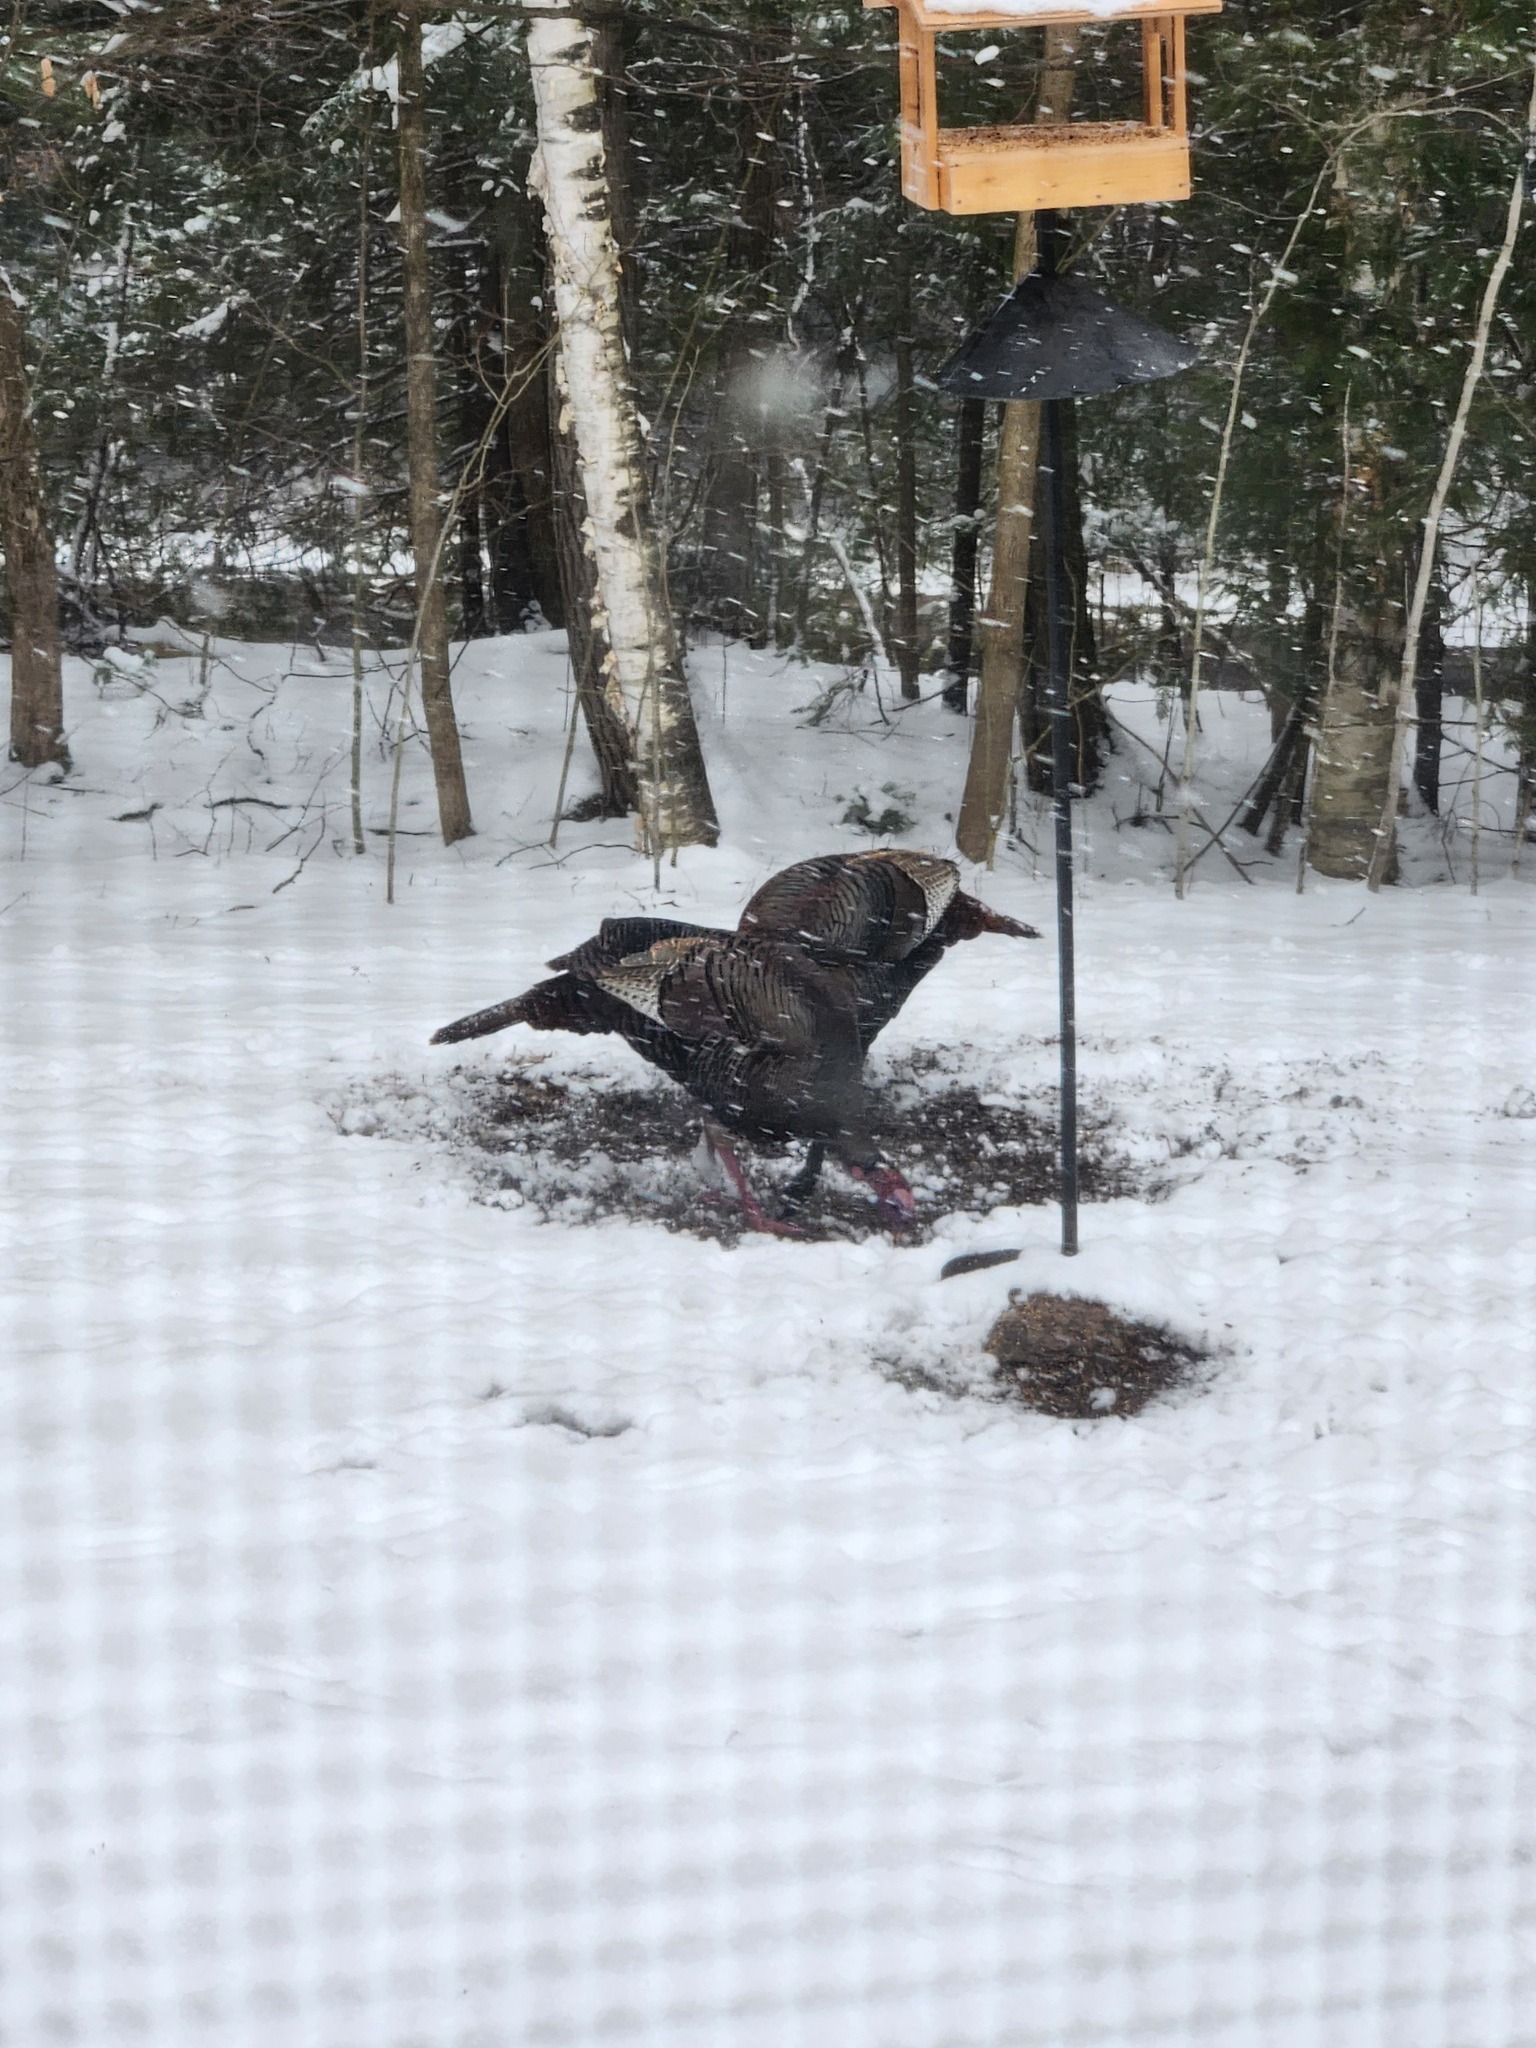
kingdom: Animalia
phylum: Chordata
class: Aves
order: Galliformes
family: Phasianidae
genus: Meleagris
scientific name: Meleagris gallopavo
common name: Wild turkey
